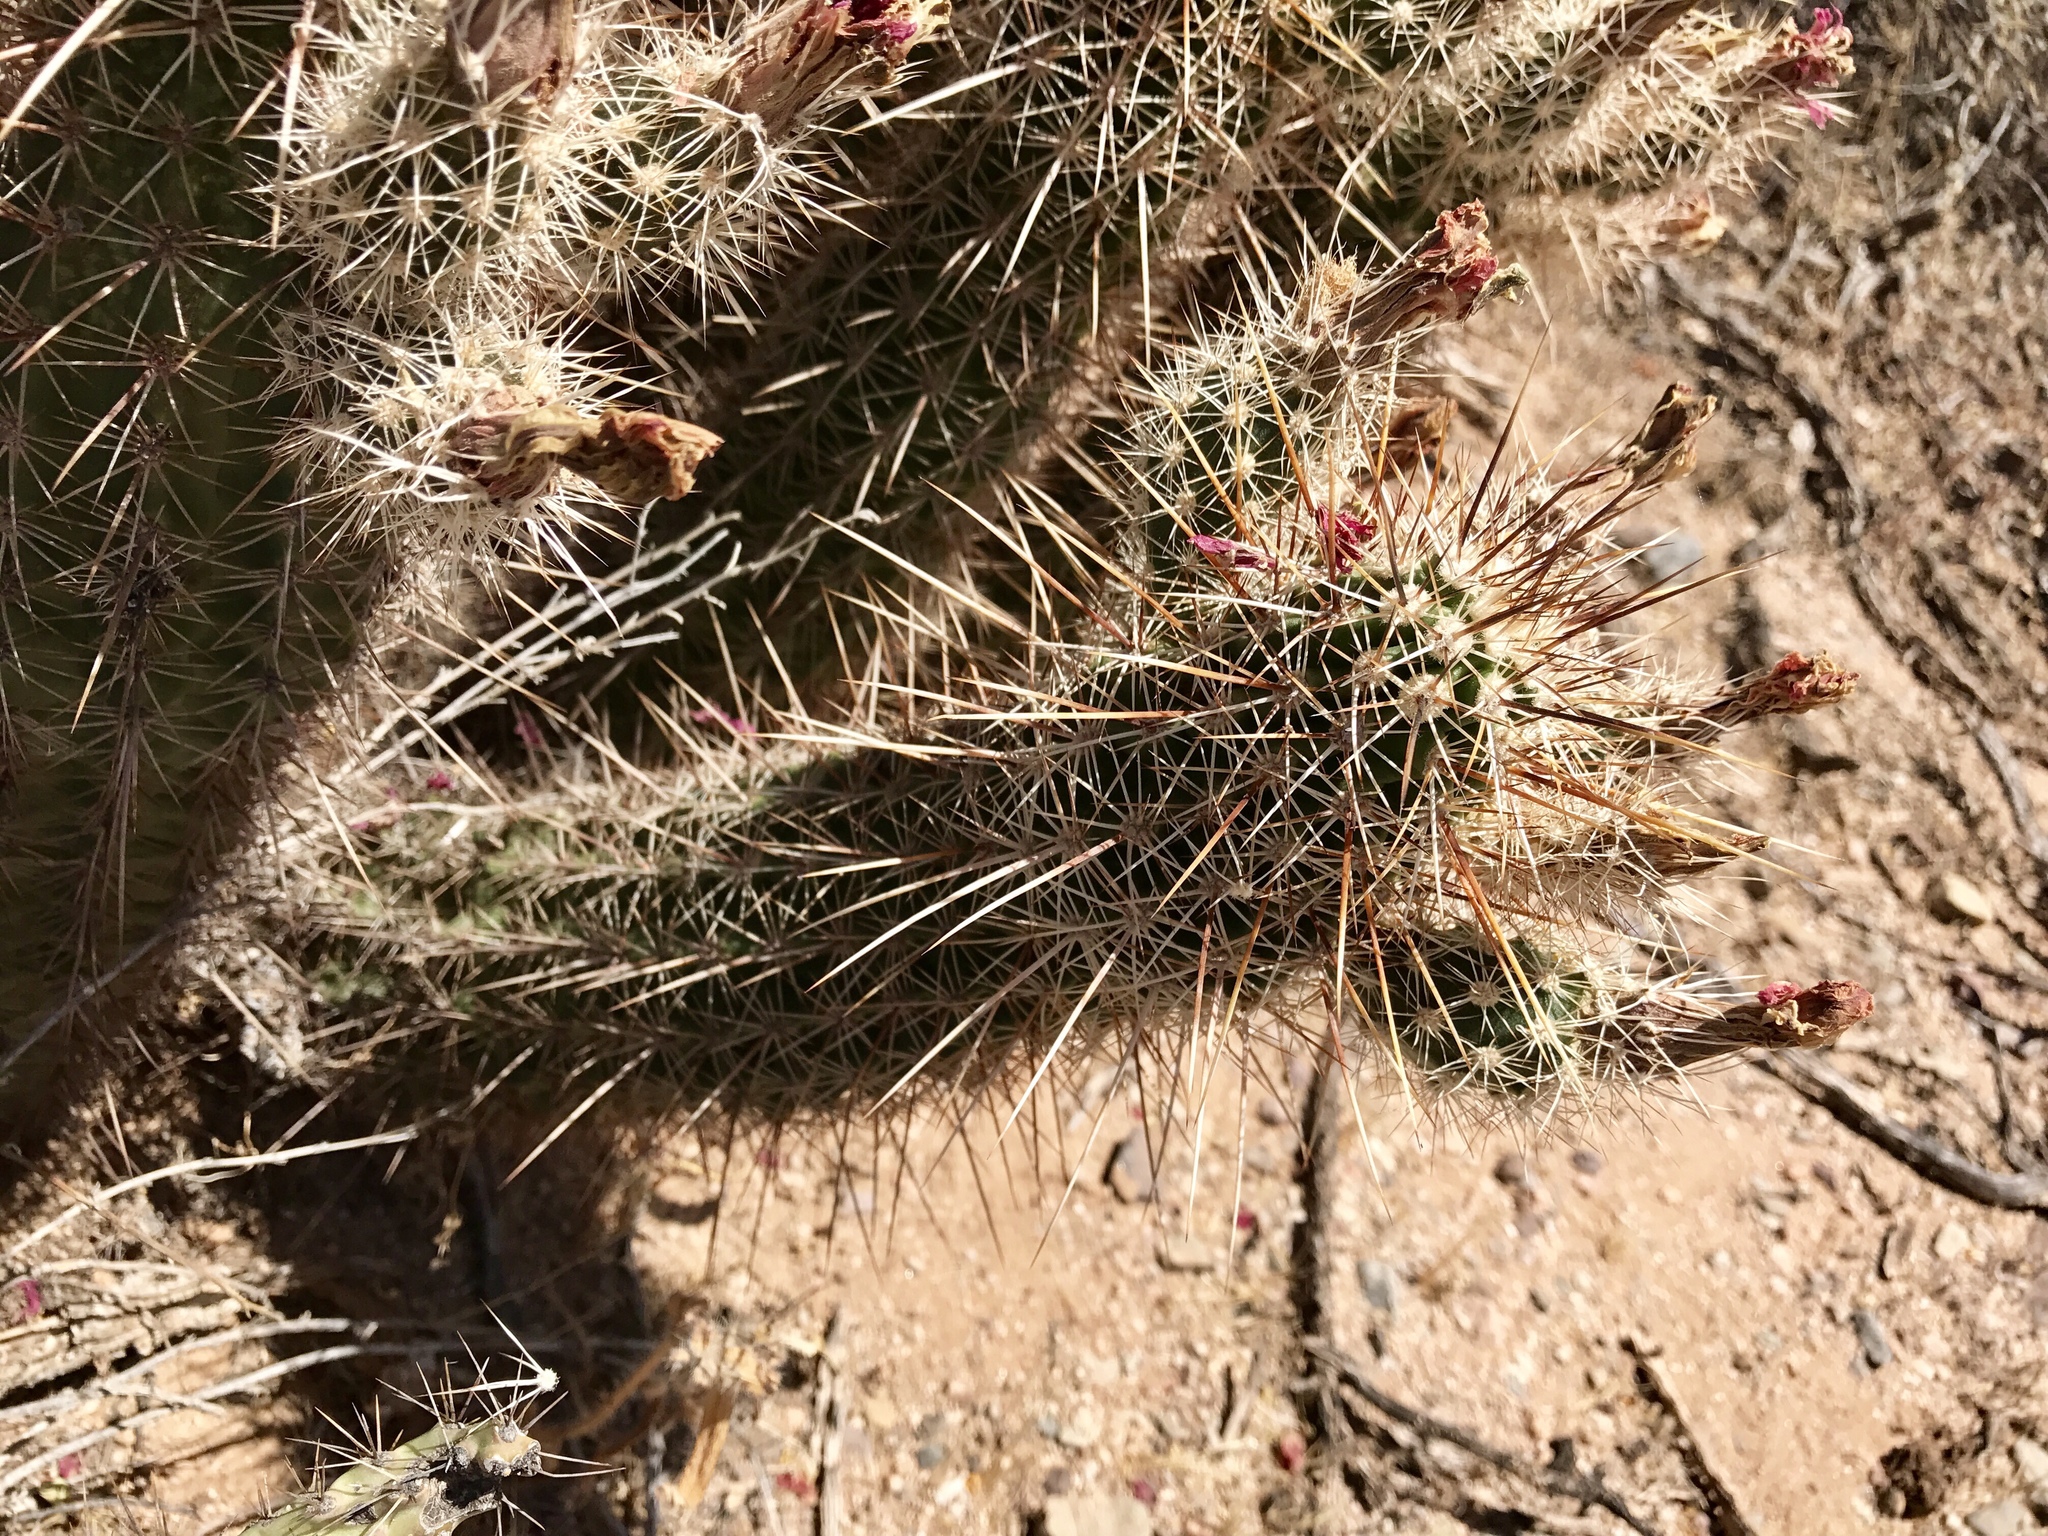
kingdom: Plantae
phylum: Tracheophyta
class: Magnoliopsida
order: Caryophyllales
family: Cactaceae
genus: Echinocereus
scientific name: Echinocereus fasciculatus
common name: Bundle hedgehog
